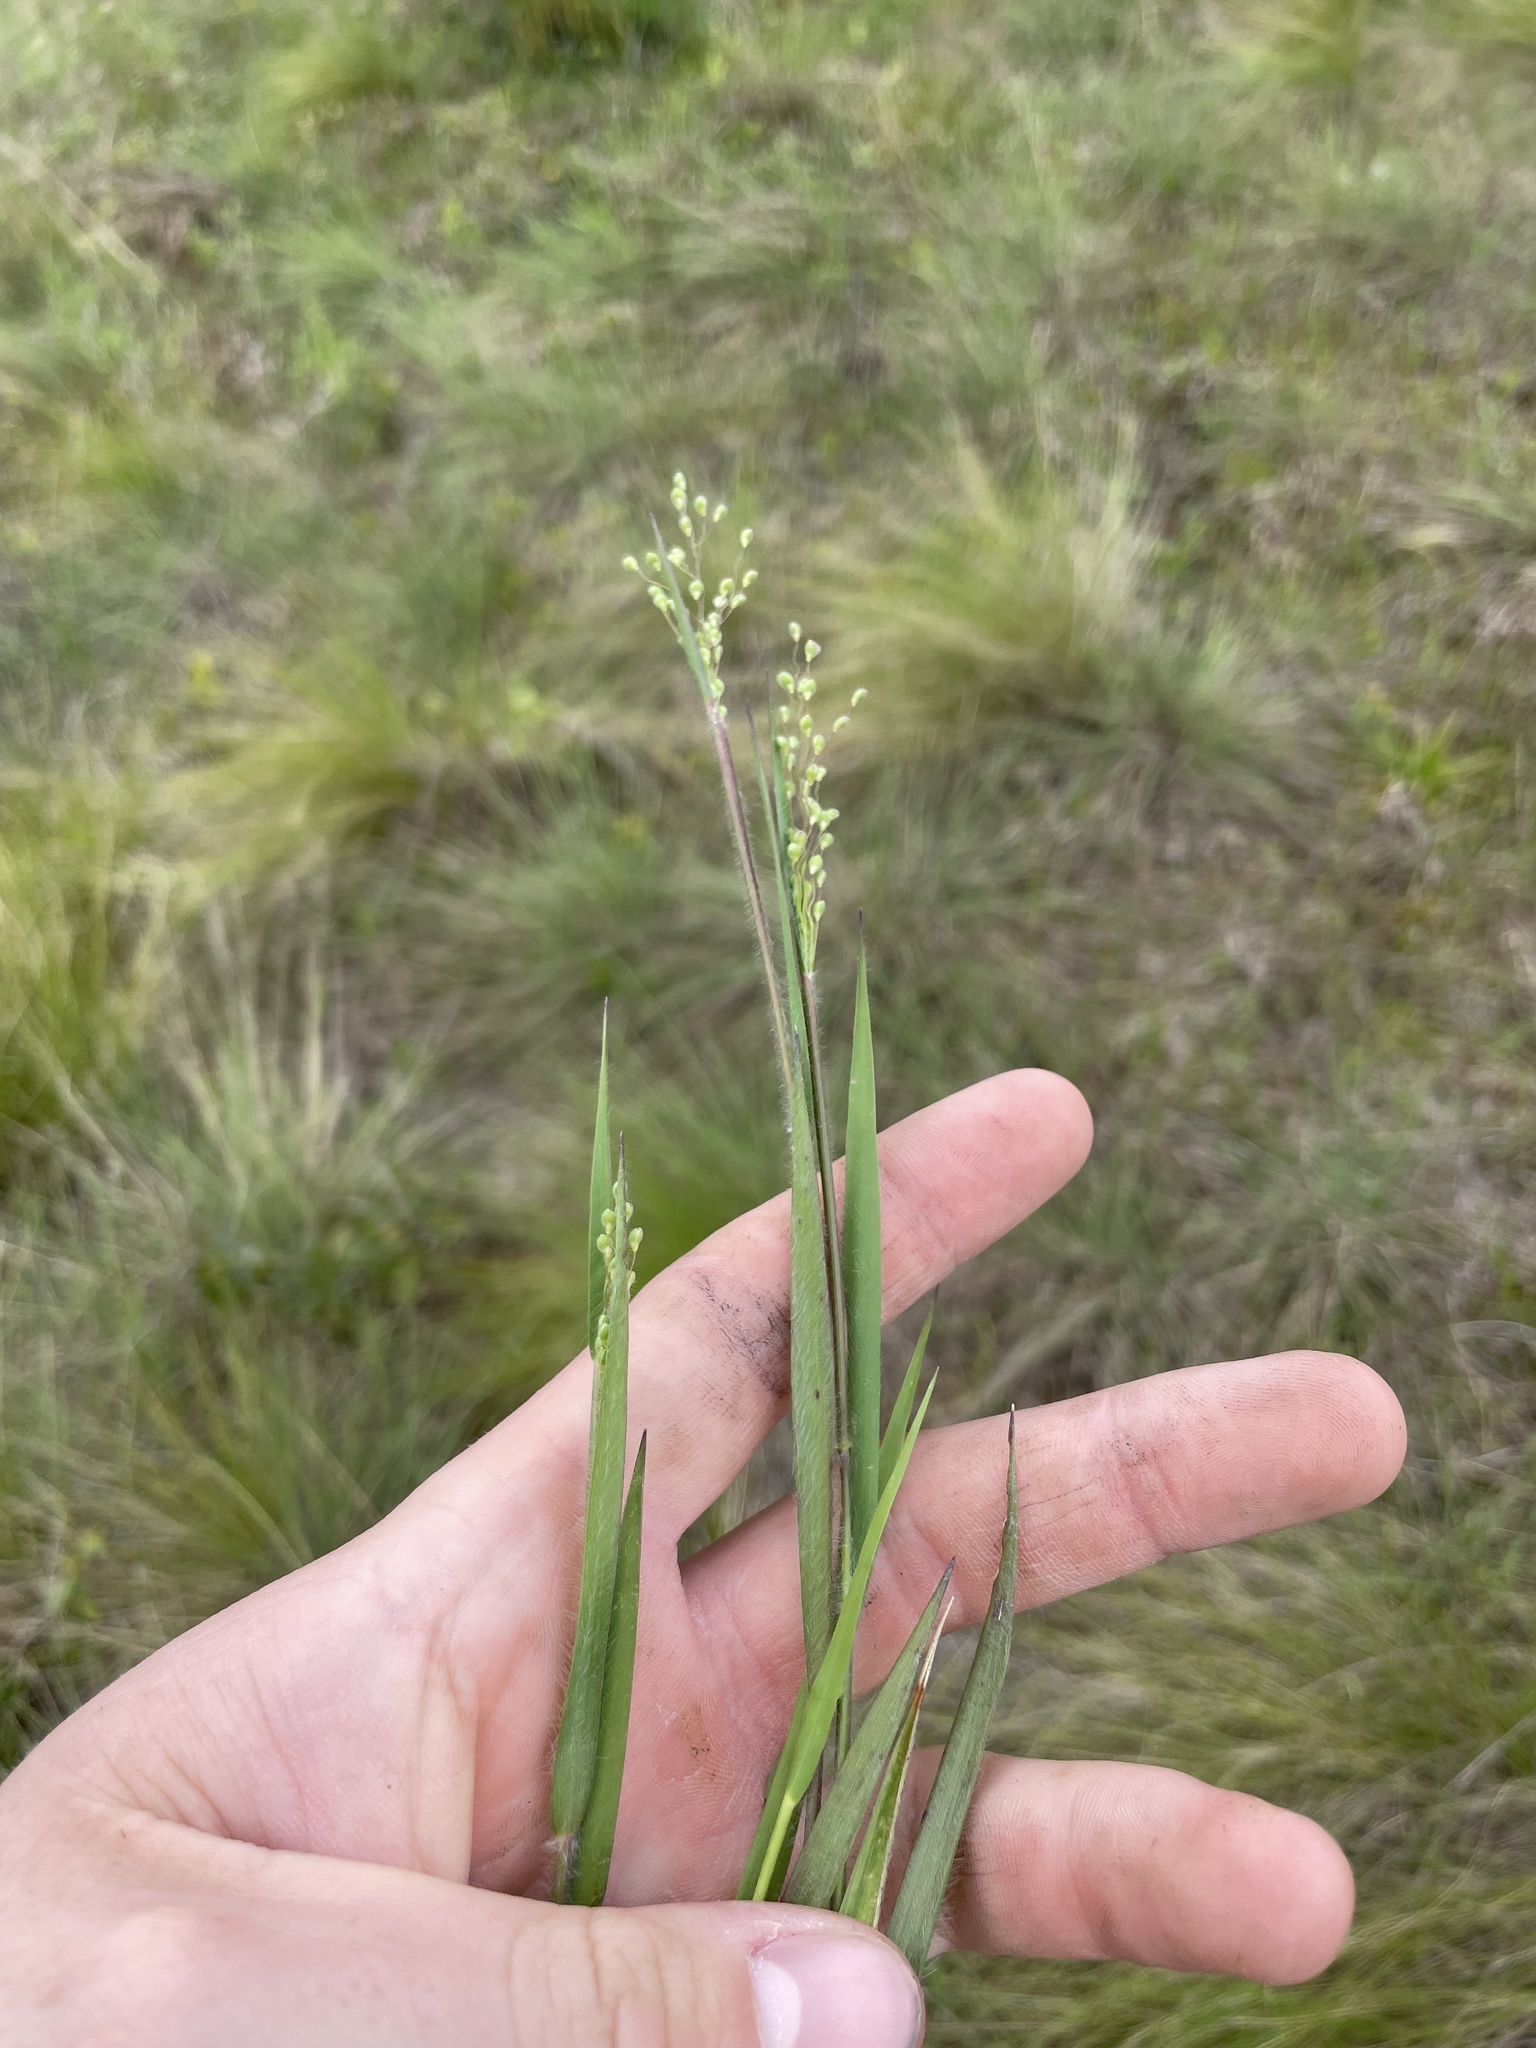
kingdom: Plantae
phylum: Tracheophyta
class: Liliopsida
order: Poales
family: Poaceae
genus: Dichanthelium
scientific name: Dichanthelium consanguineum
